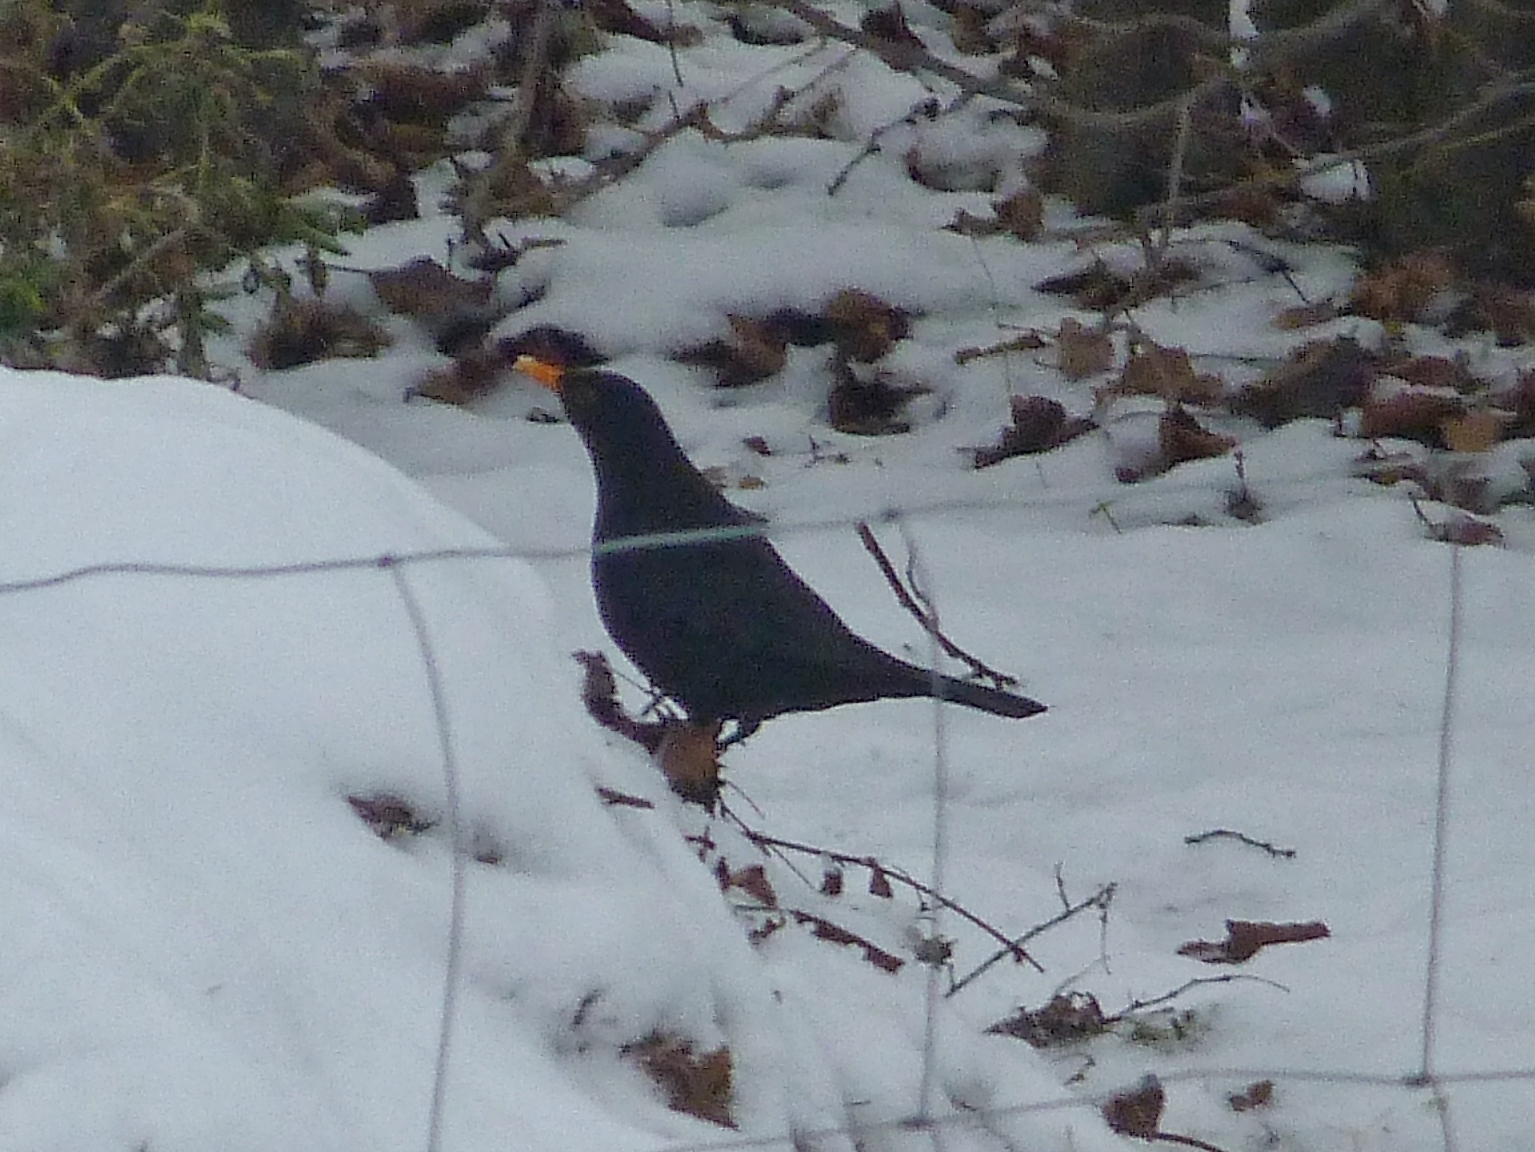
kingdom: Animalia
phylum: Chordata
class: Aves
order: Passeriformes
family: Turdidae
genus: Turdus
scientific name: Turdus merula
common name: Common blackbird
